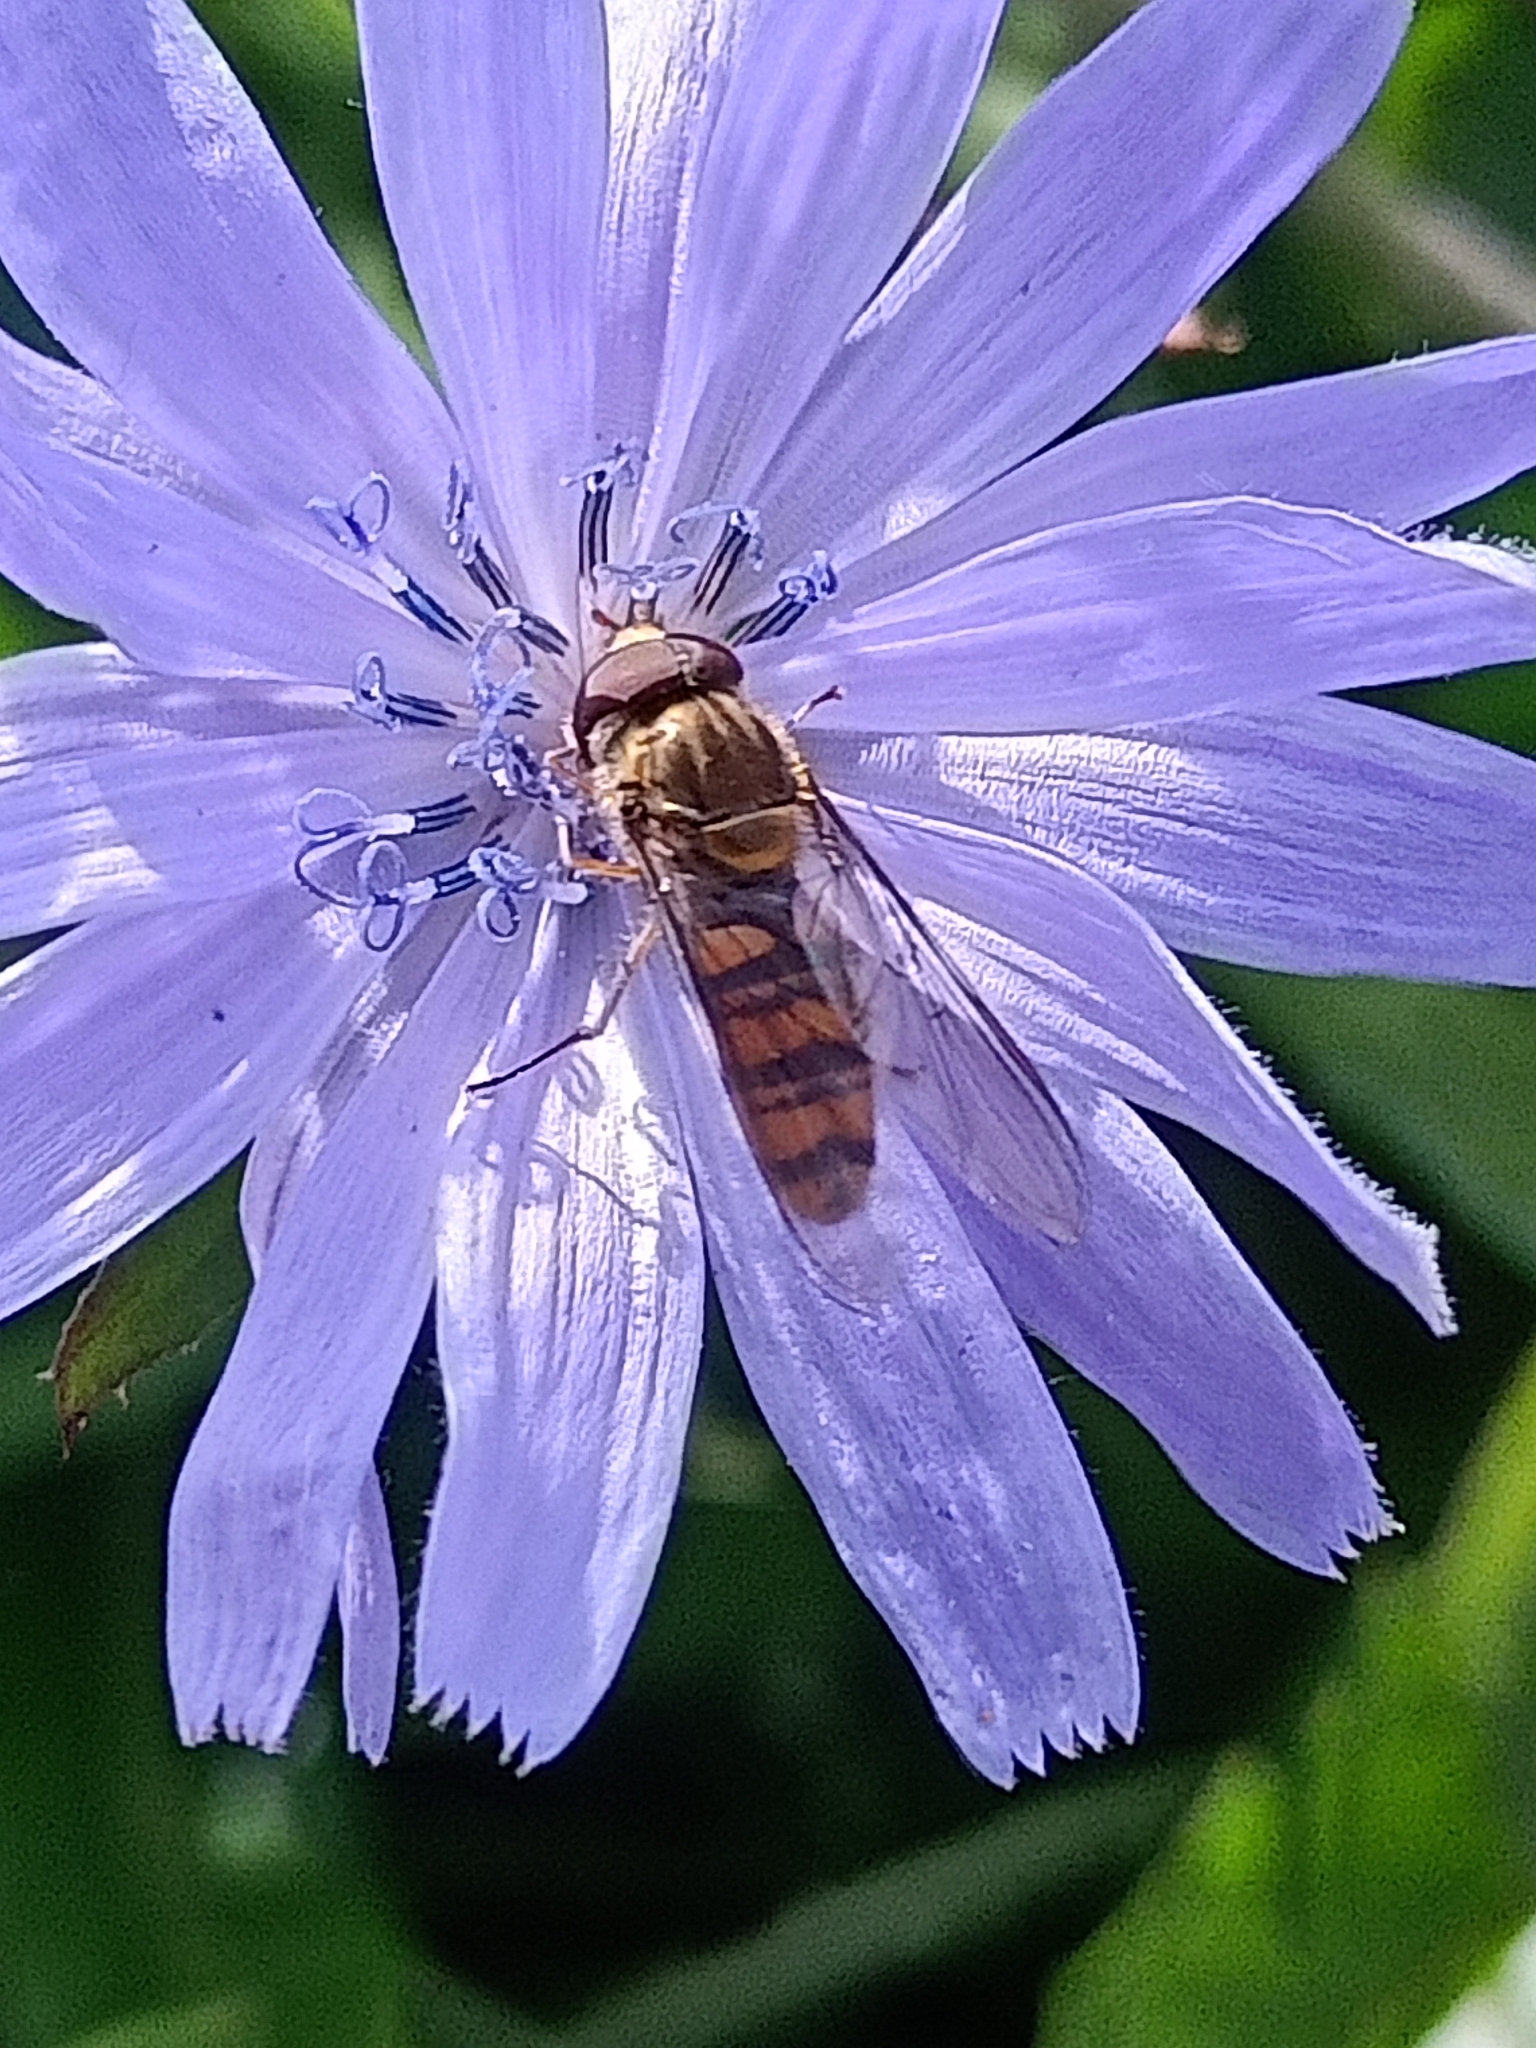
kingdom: Animalia
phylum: Arthropoda
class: Insecta
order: Diptera
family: Syrphidae
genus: Episyrphus
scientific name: Episyrphus balteatus
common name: Marmalade hoverfly
